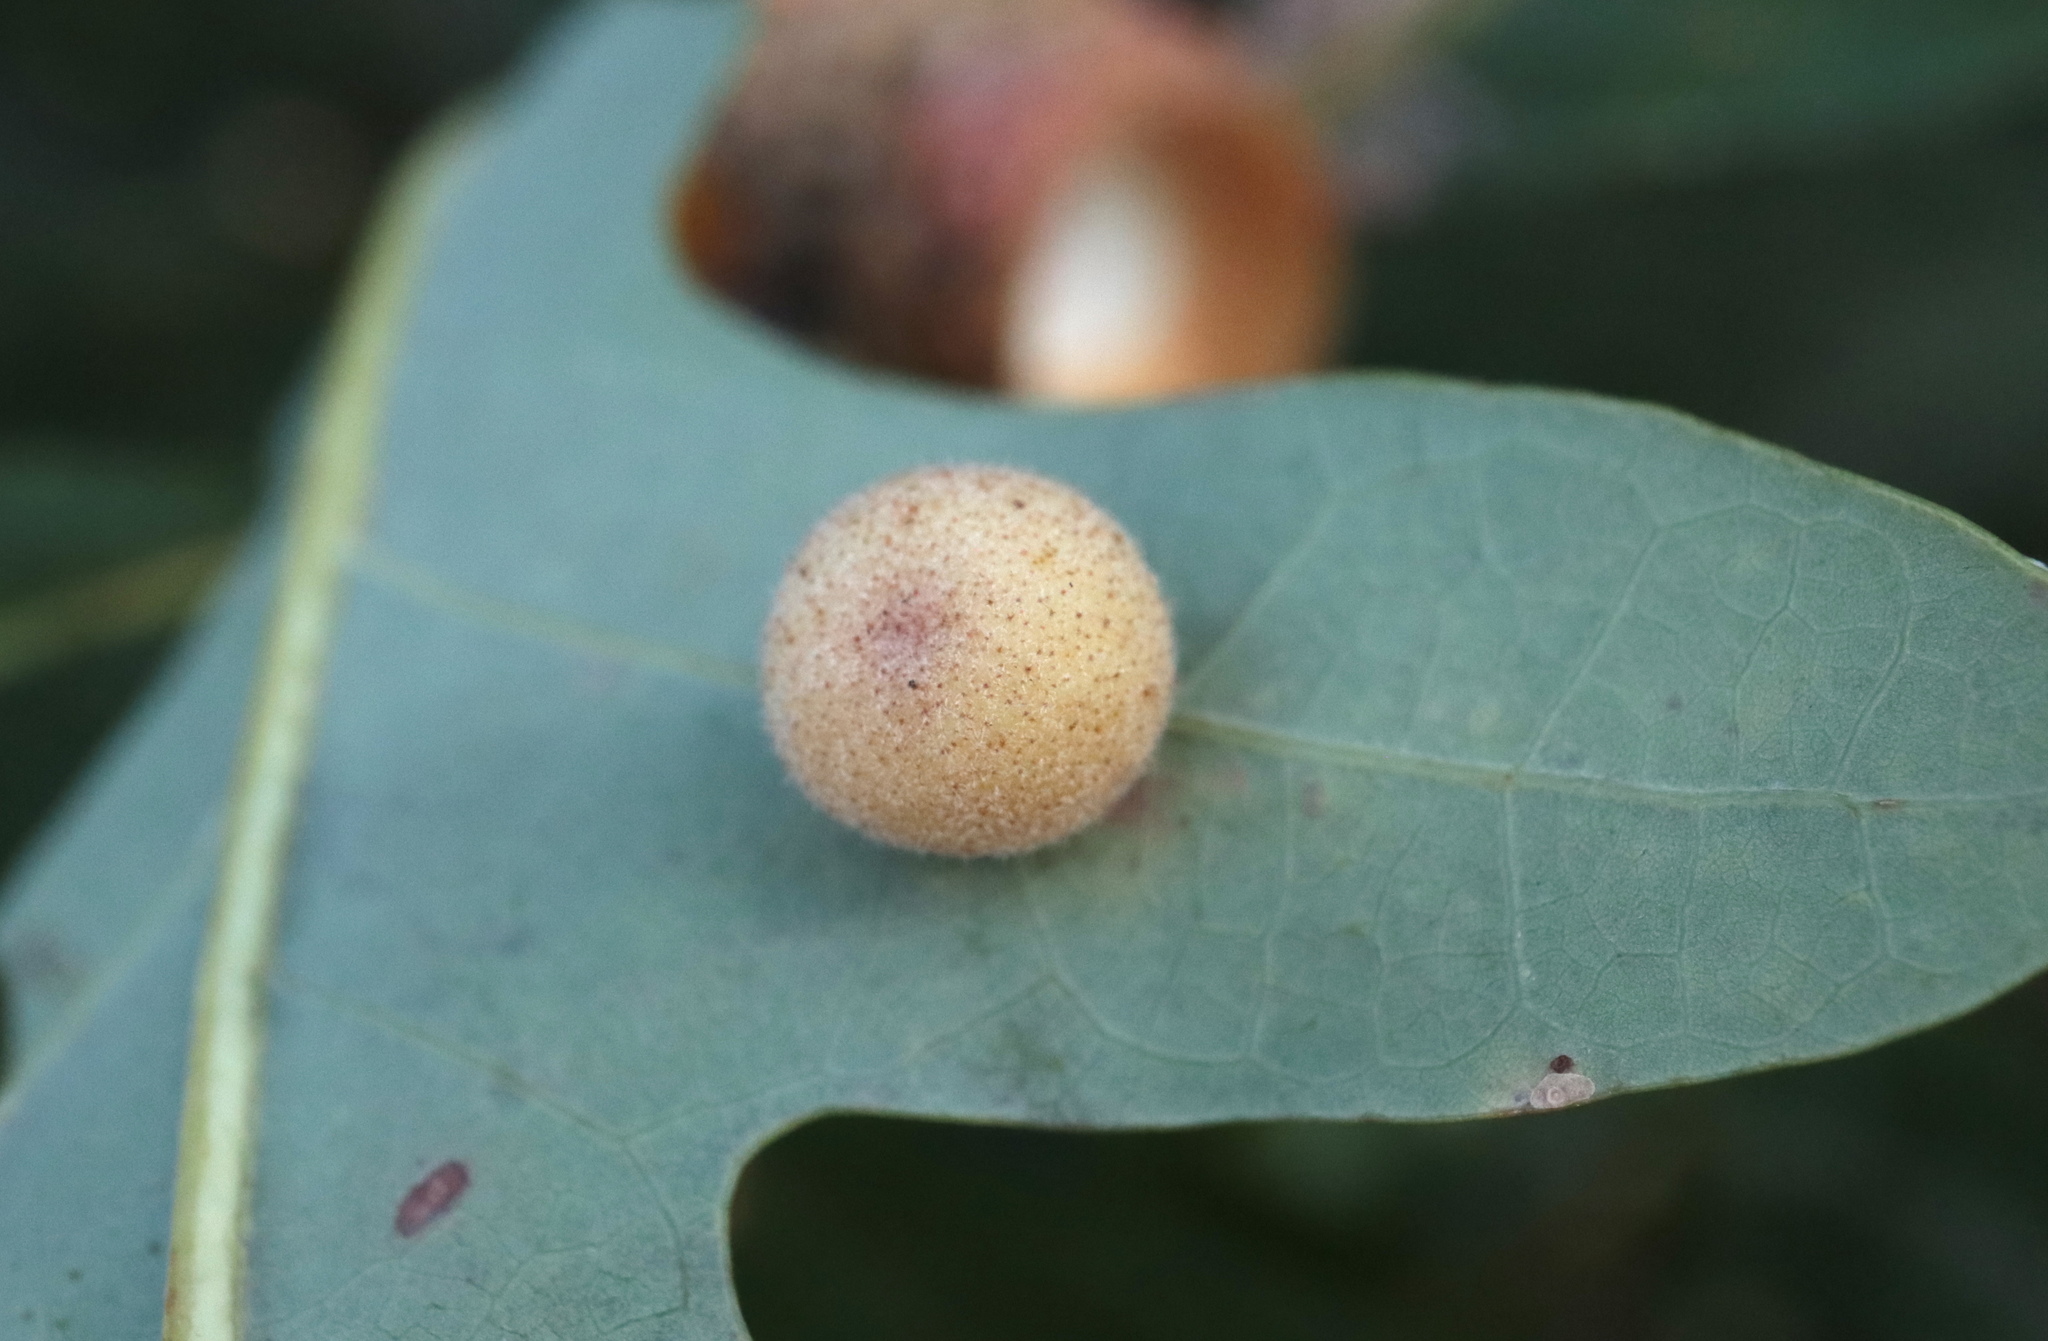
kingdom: Animalia
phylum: Arthropoda
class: Insecta
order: Hymenoptera
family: Cynipidae
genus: Philonix
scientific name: Philonix fulvicollis
